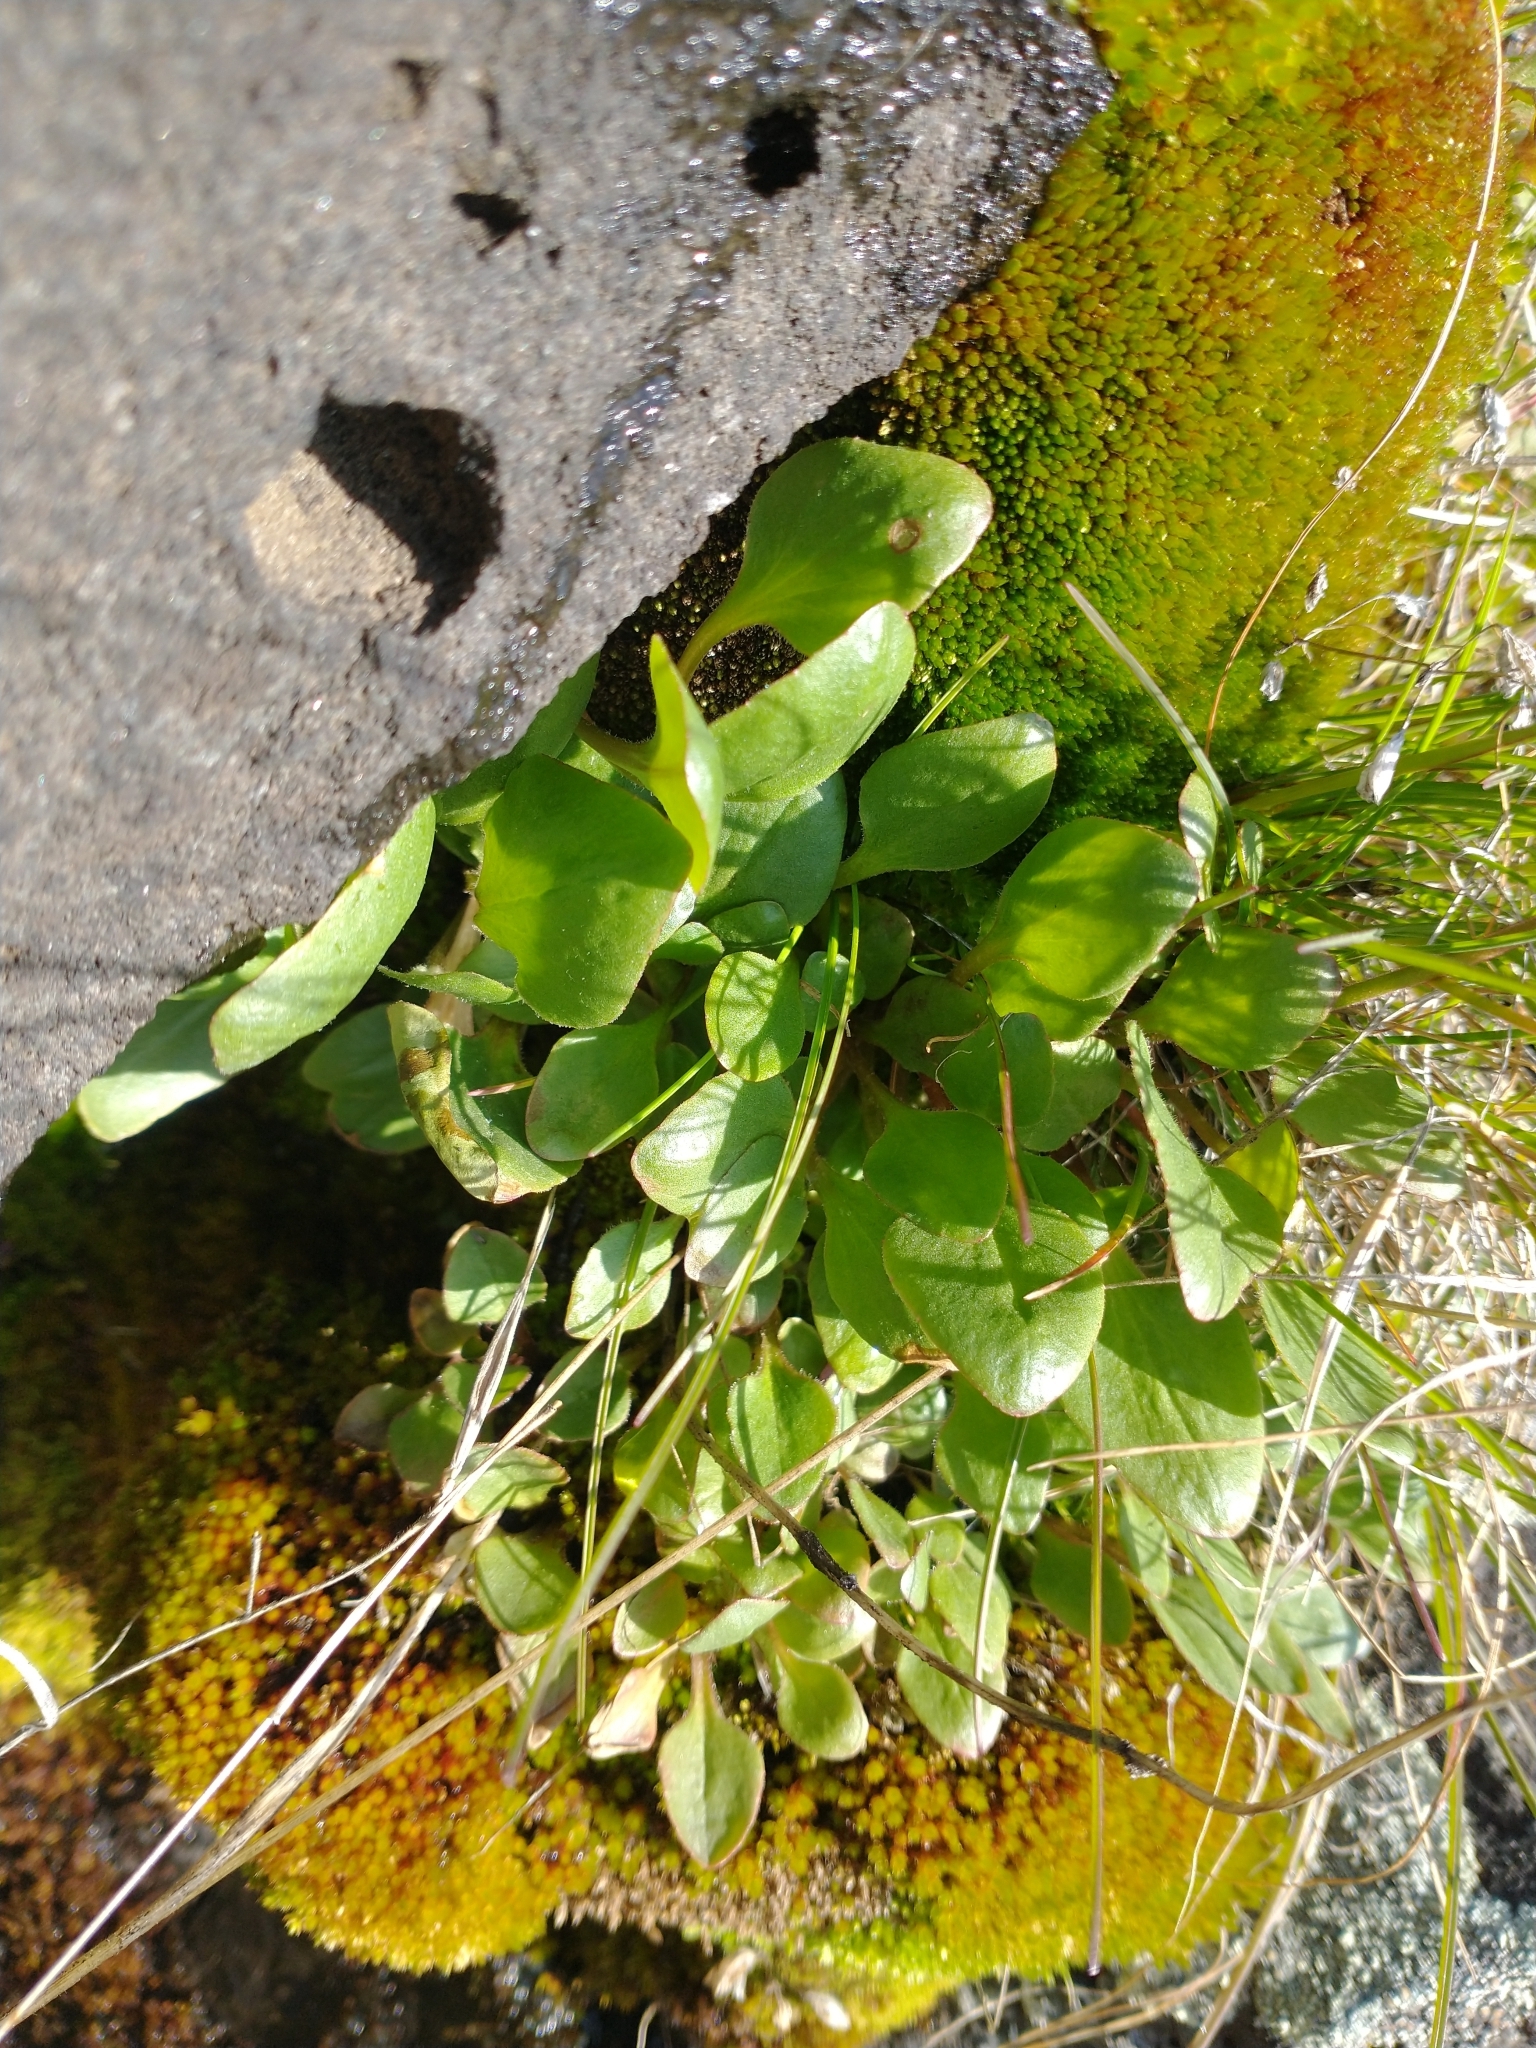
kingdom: Plantae
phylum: Tracheophyta
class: Magnoliopsida
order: Saxifragales
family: Saxifragaceae
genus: Micranthes
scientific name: Micranthes fragosa
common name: Peak saxifrage
